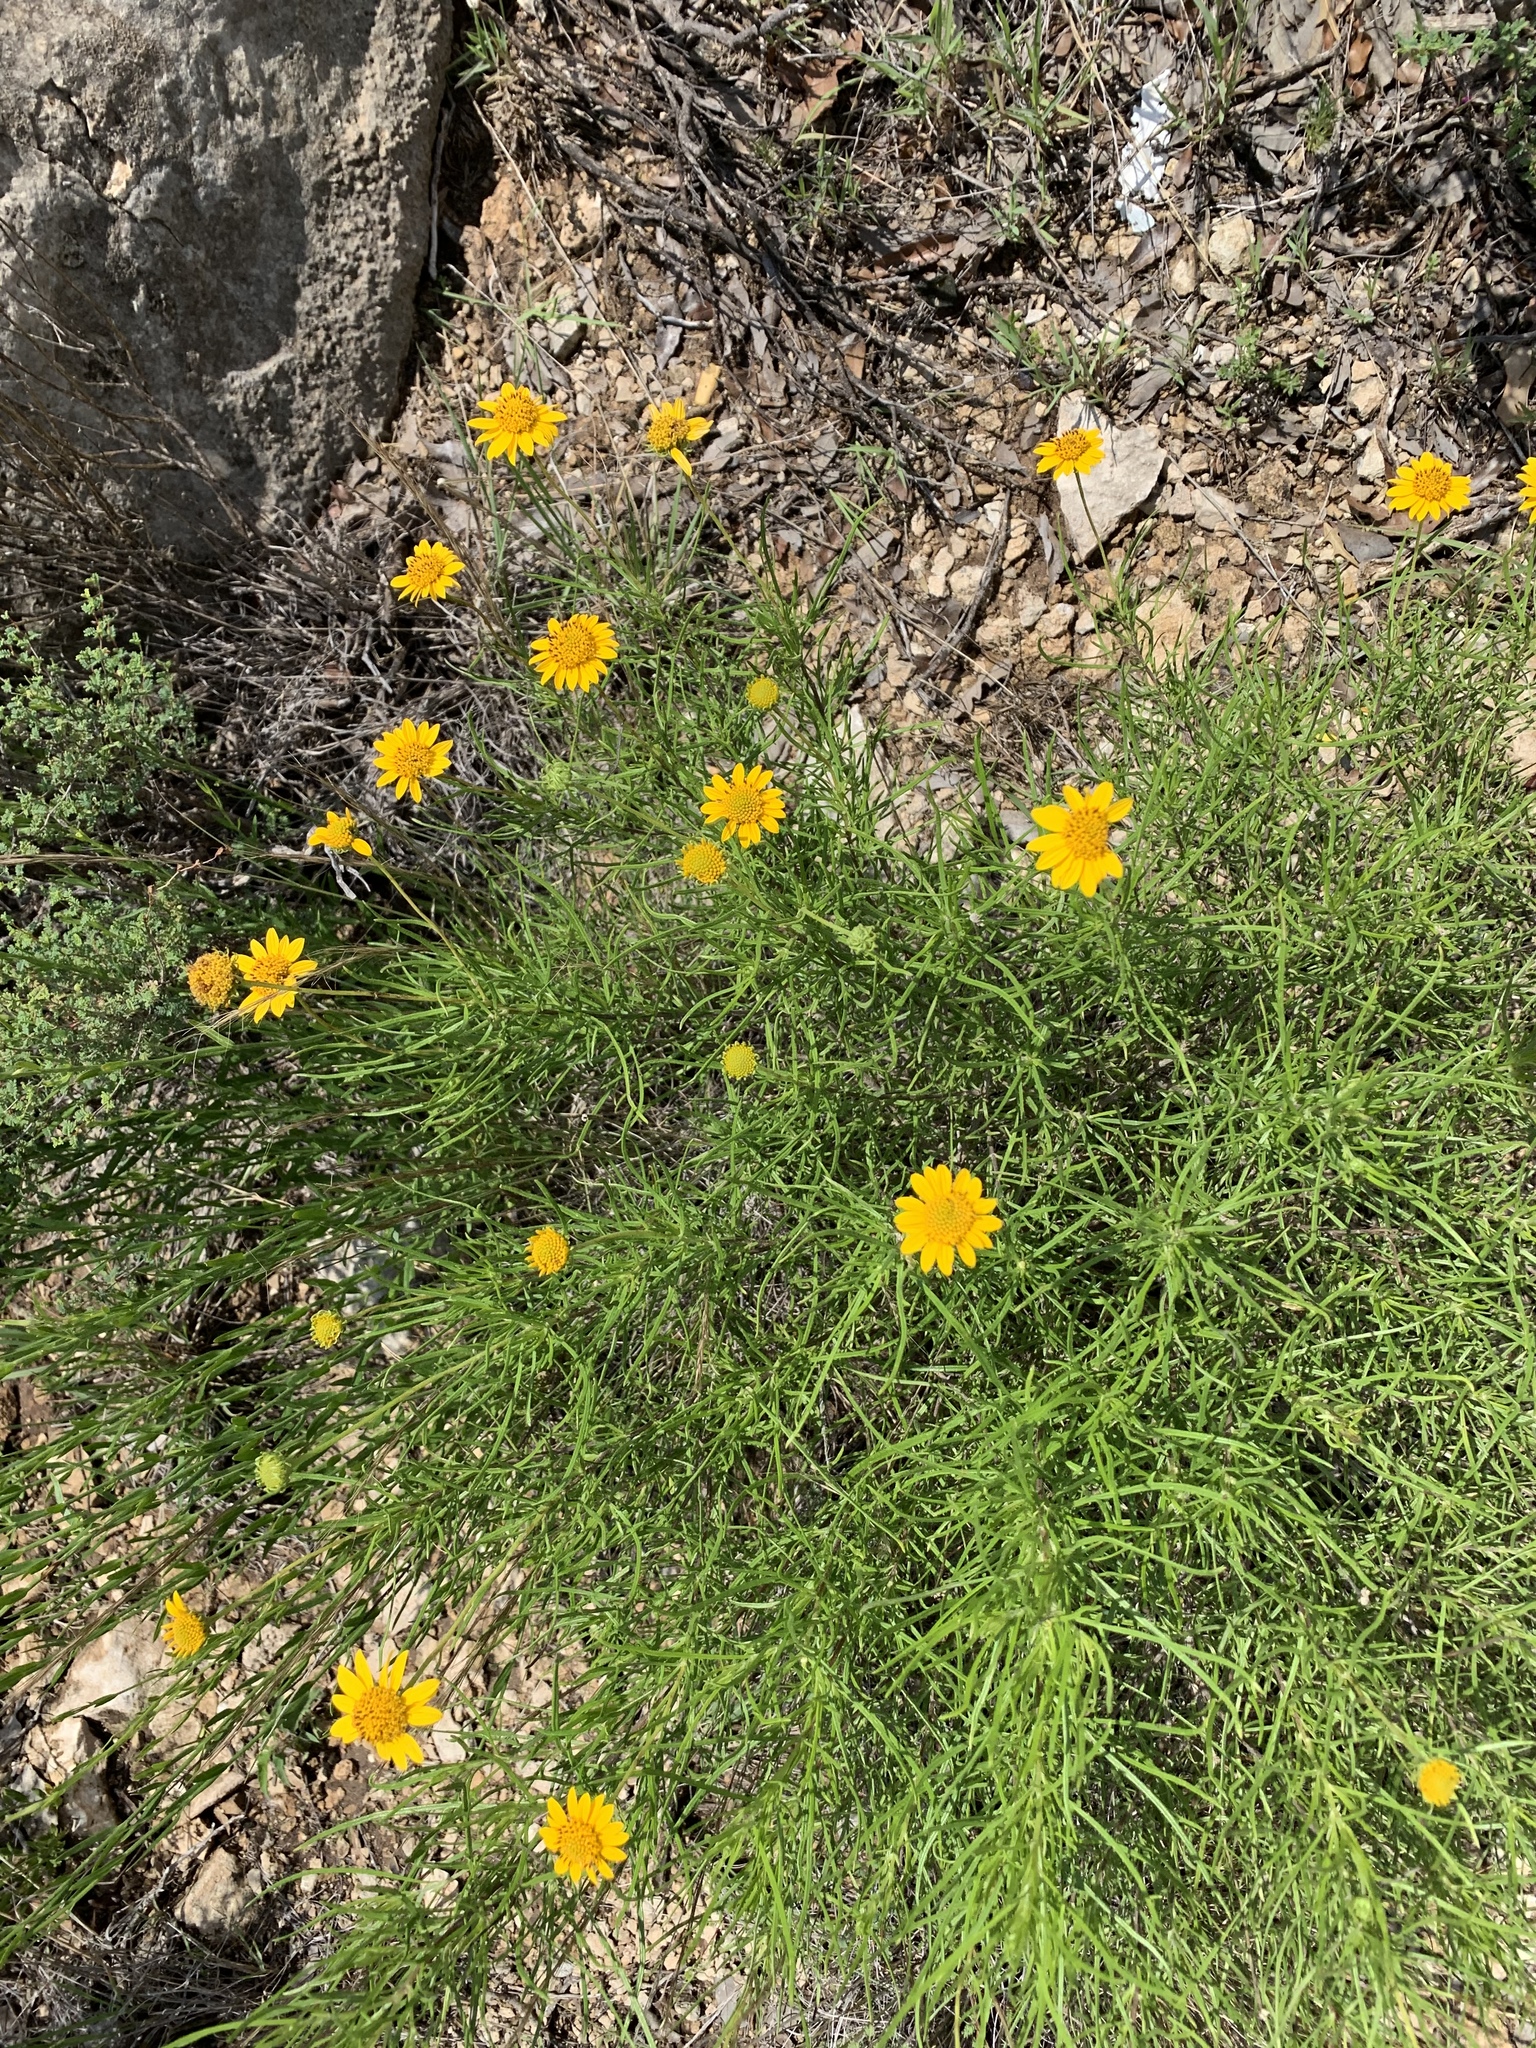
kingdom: Plantae
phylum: Tracheophyta
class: Magnoliopsida
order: Asterales
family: Asteraceae
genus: Sidneya
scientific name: Sidneya tenuifolia
